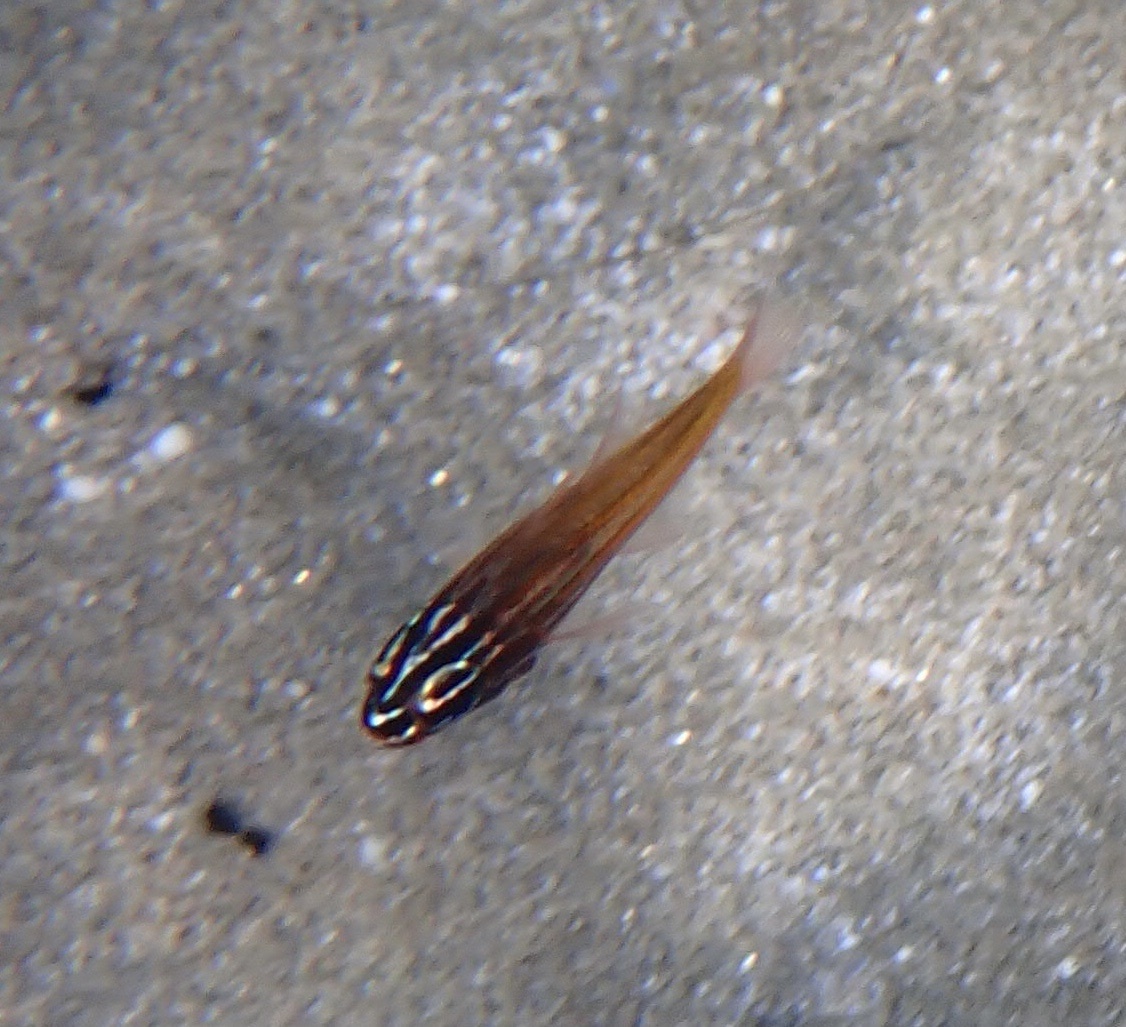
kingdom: Animalia
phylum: Chordata
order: Perciformes
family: Apogonidae
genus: Ostorhinchus
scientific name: Ostorhinchus cyanosoma
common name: Yellow-striped cardinalfish
